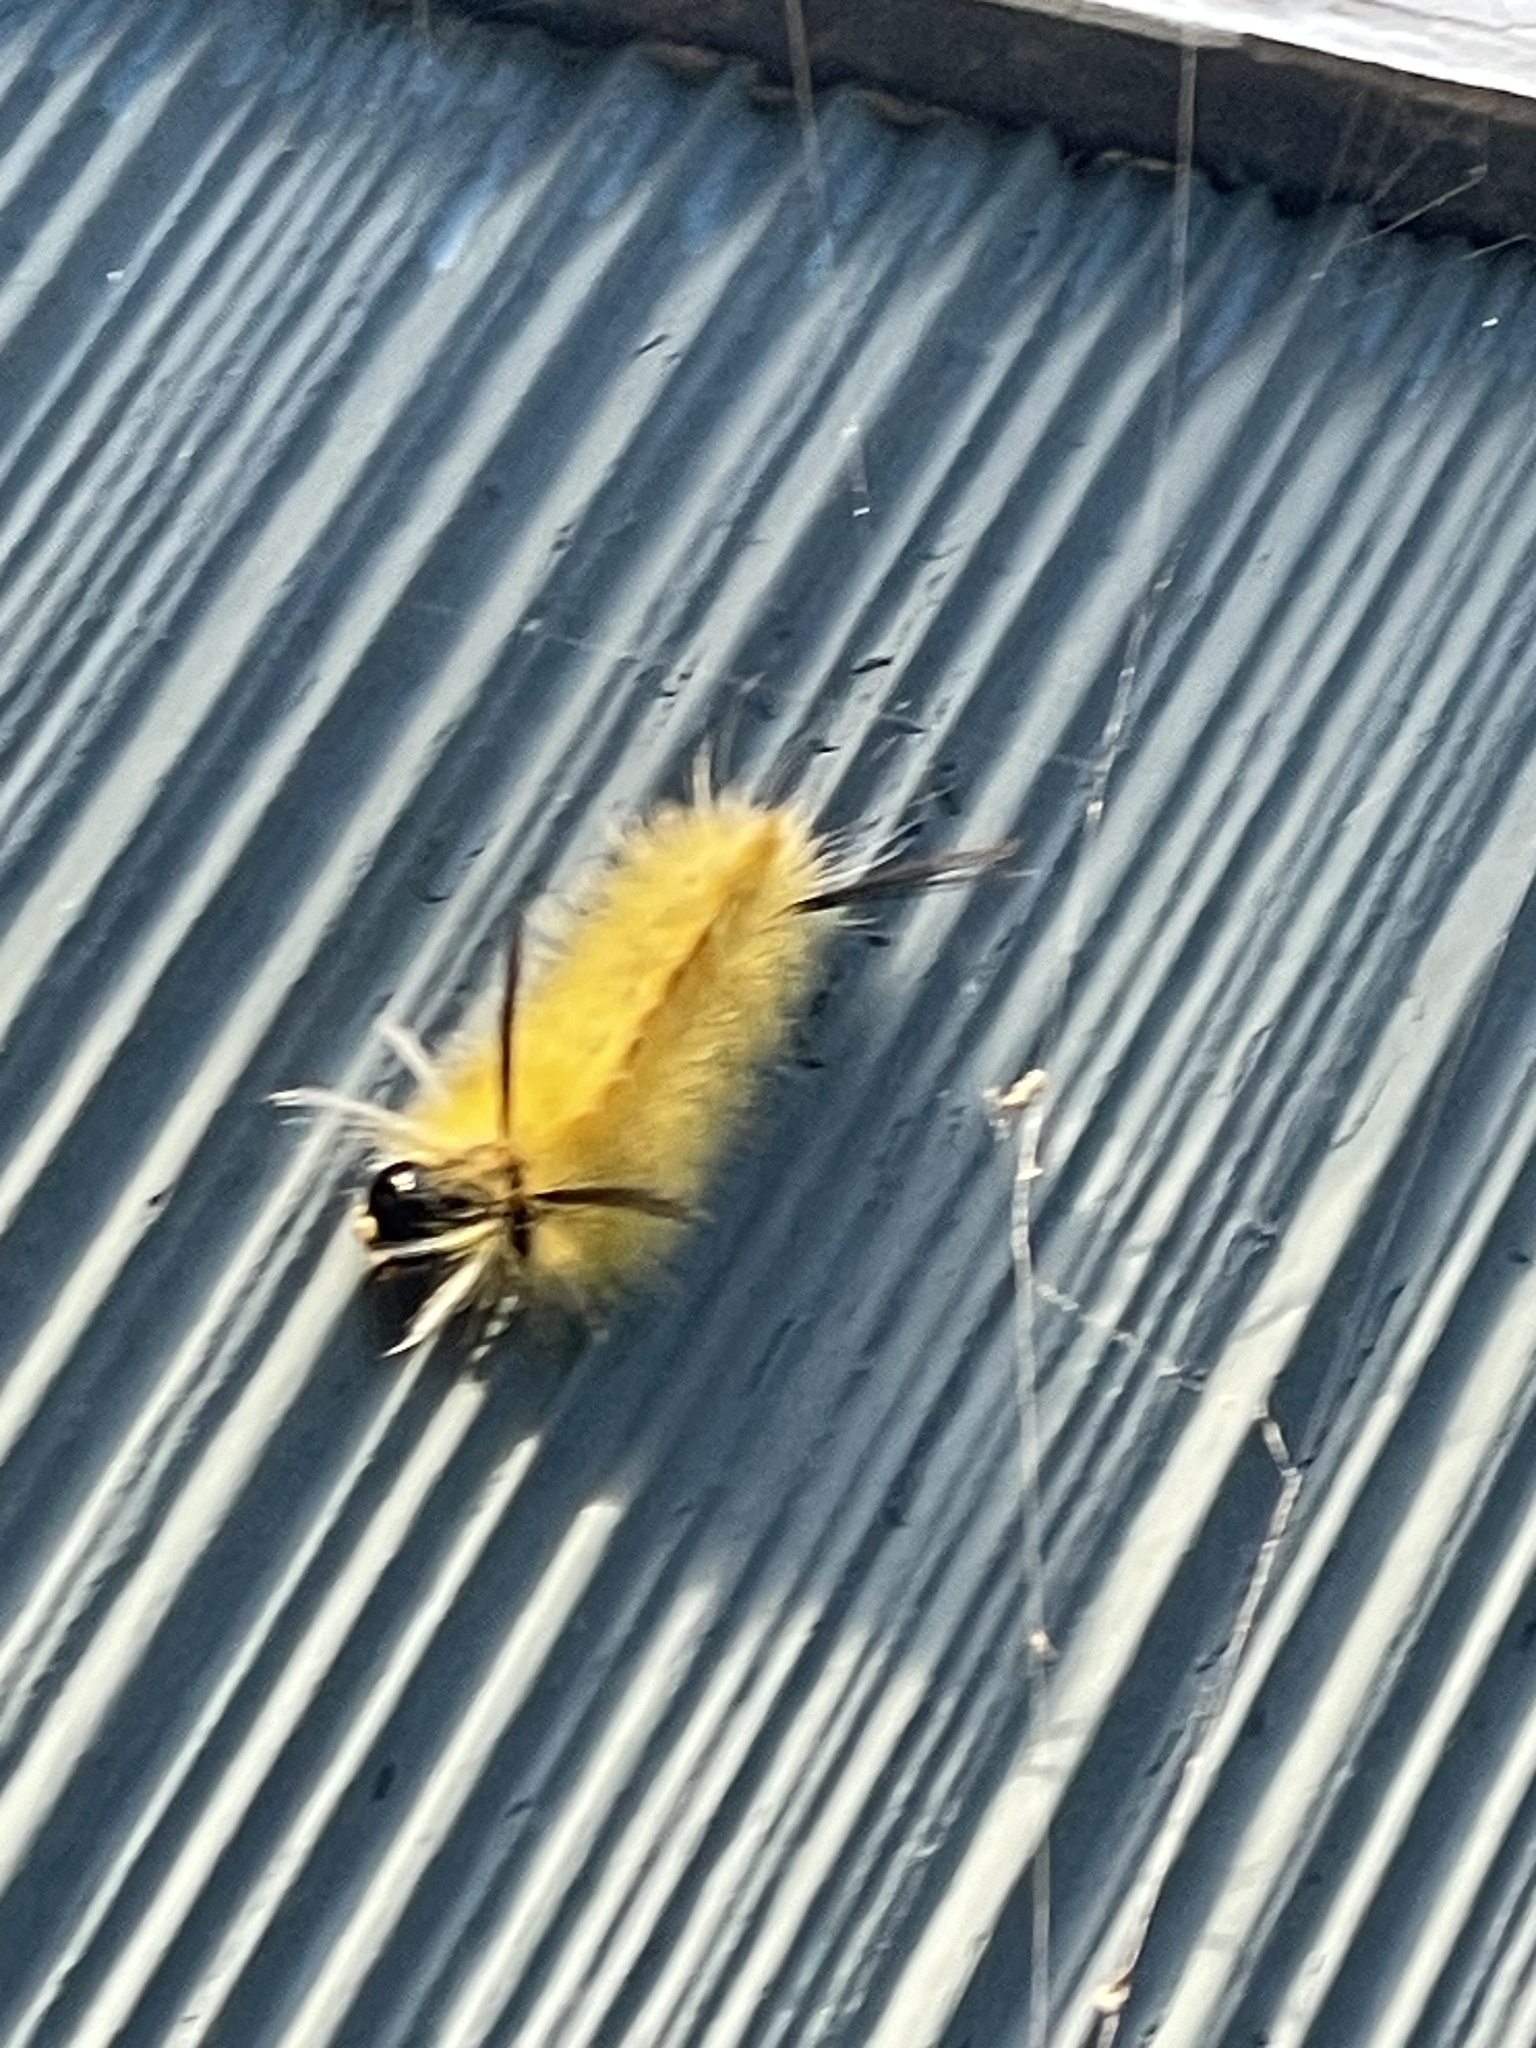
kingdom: Animalia
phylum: Arthropoda
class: Insecta
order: Lepidoptera
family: Erebidae
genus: Halysidota
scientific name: Halysidota tessellaris
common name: Banded tussock moth
